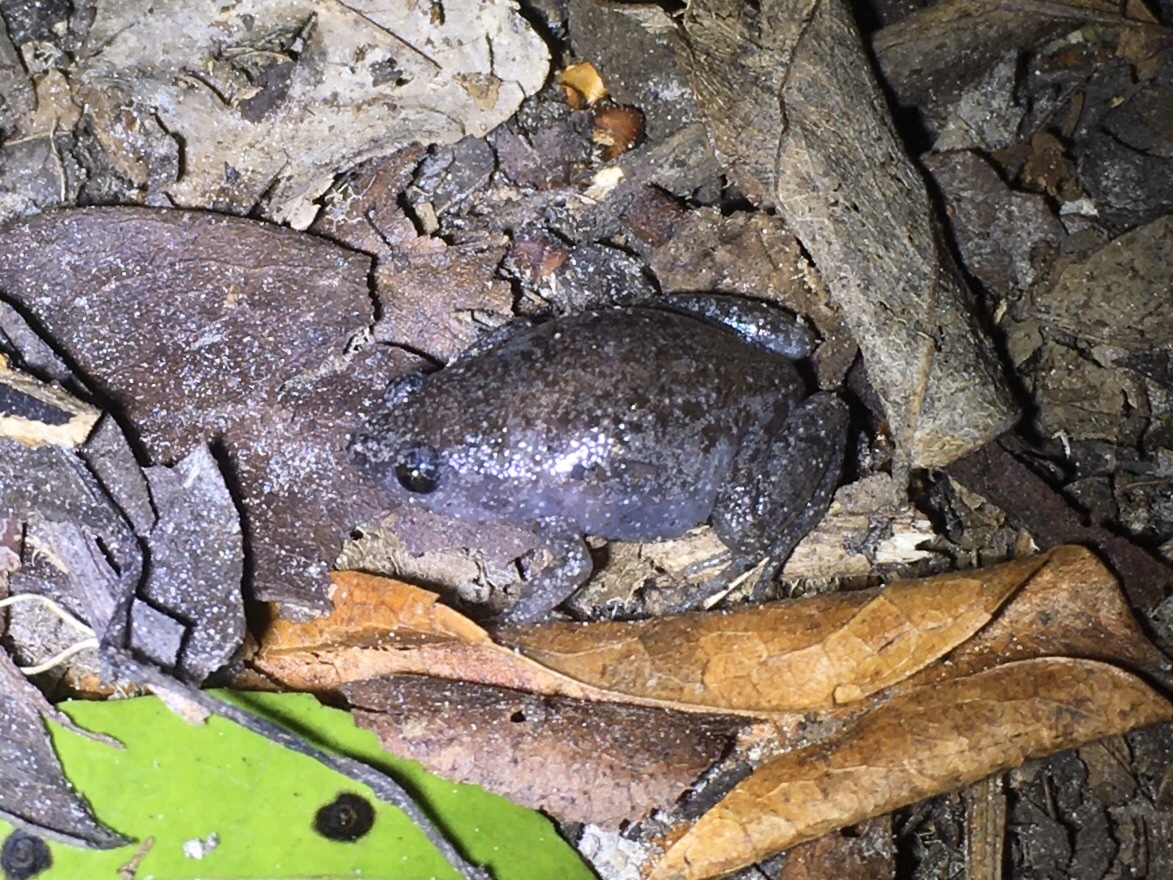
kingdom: Animalia
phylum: Chordata
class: Amphibia
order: Anura
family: Microhylidae
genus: Gastrophryne
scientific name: Gastrophryne carolinensis
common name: Eastern narrowmouth toad
